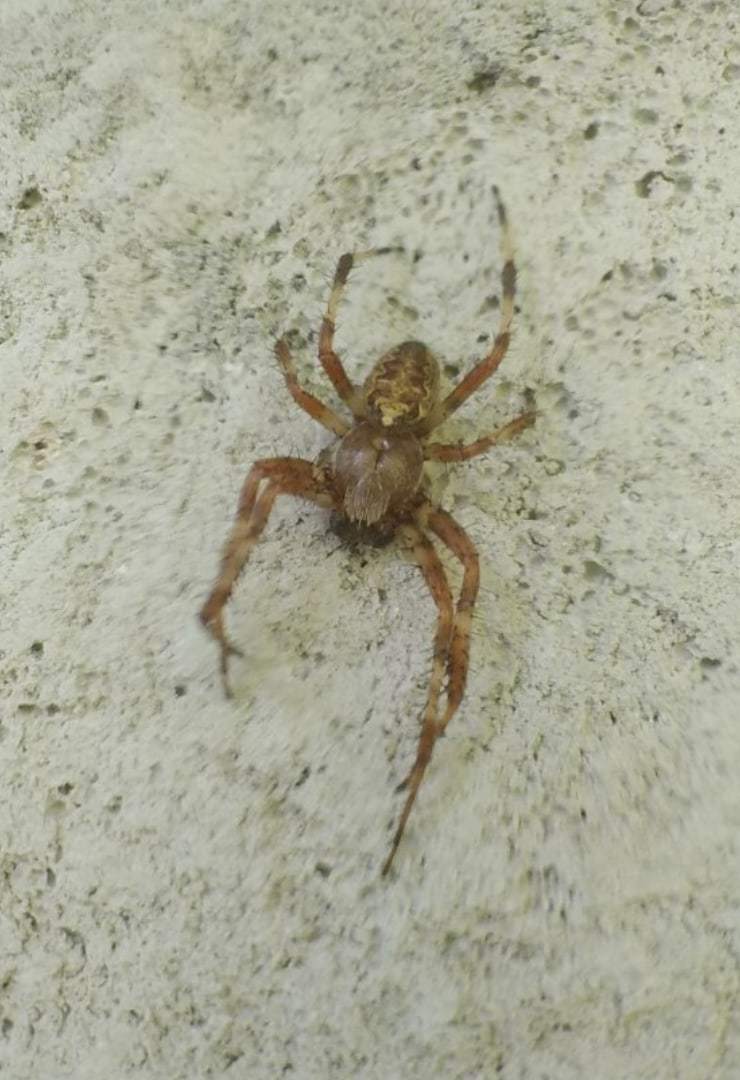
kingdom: Animalia
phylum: Arthropoda
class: Arachnida
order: Araneae
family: Araneidae
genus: Araneus
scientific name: Araneus marmoreus
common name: Marbled orbweaver
